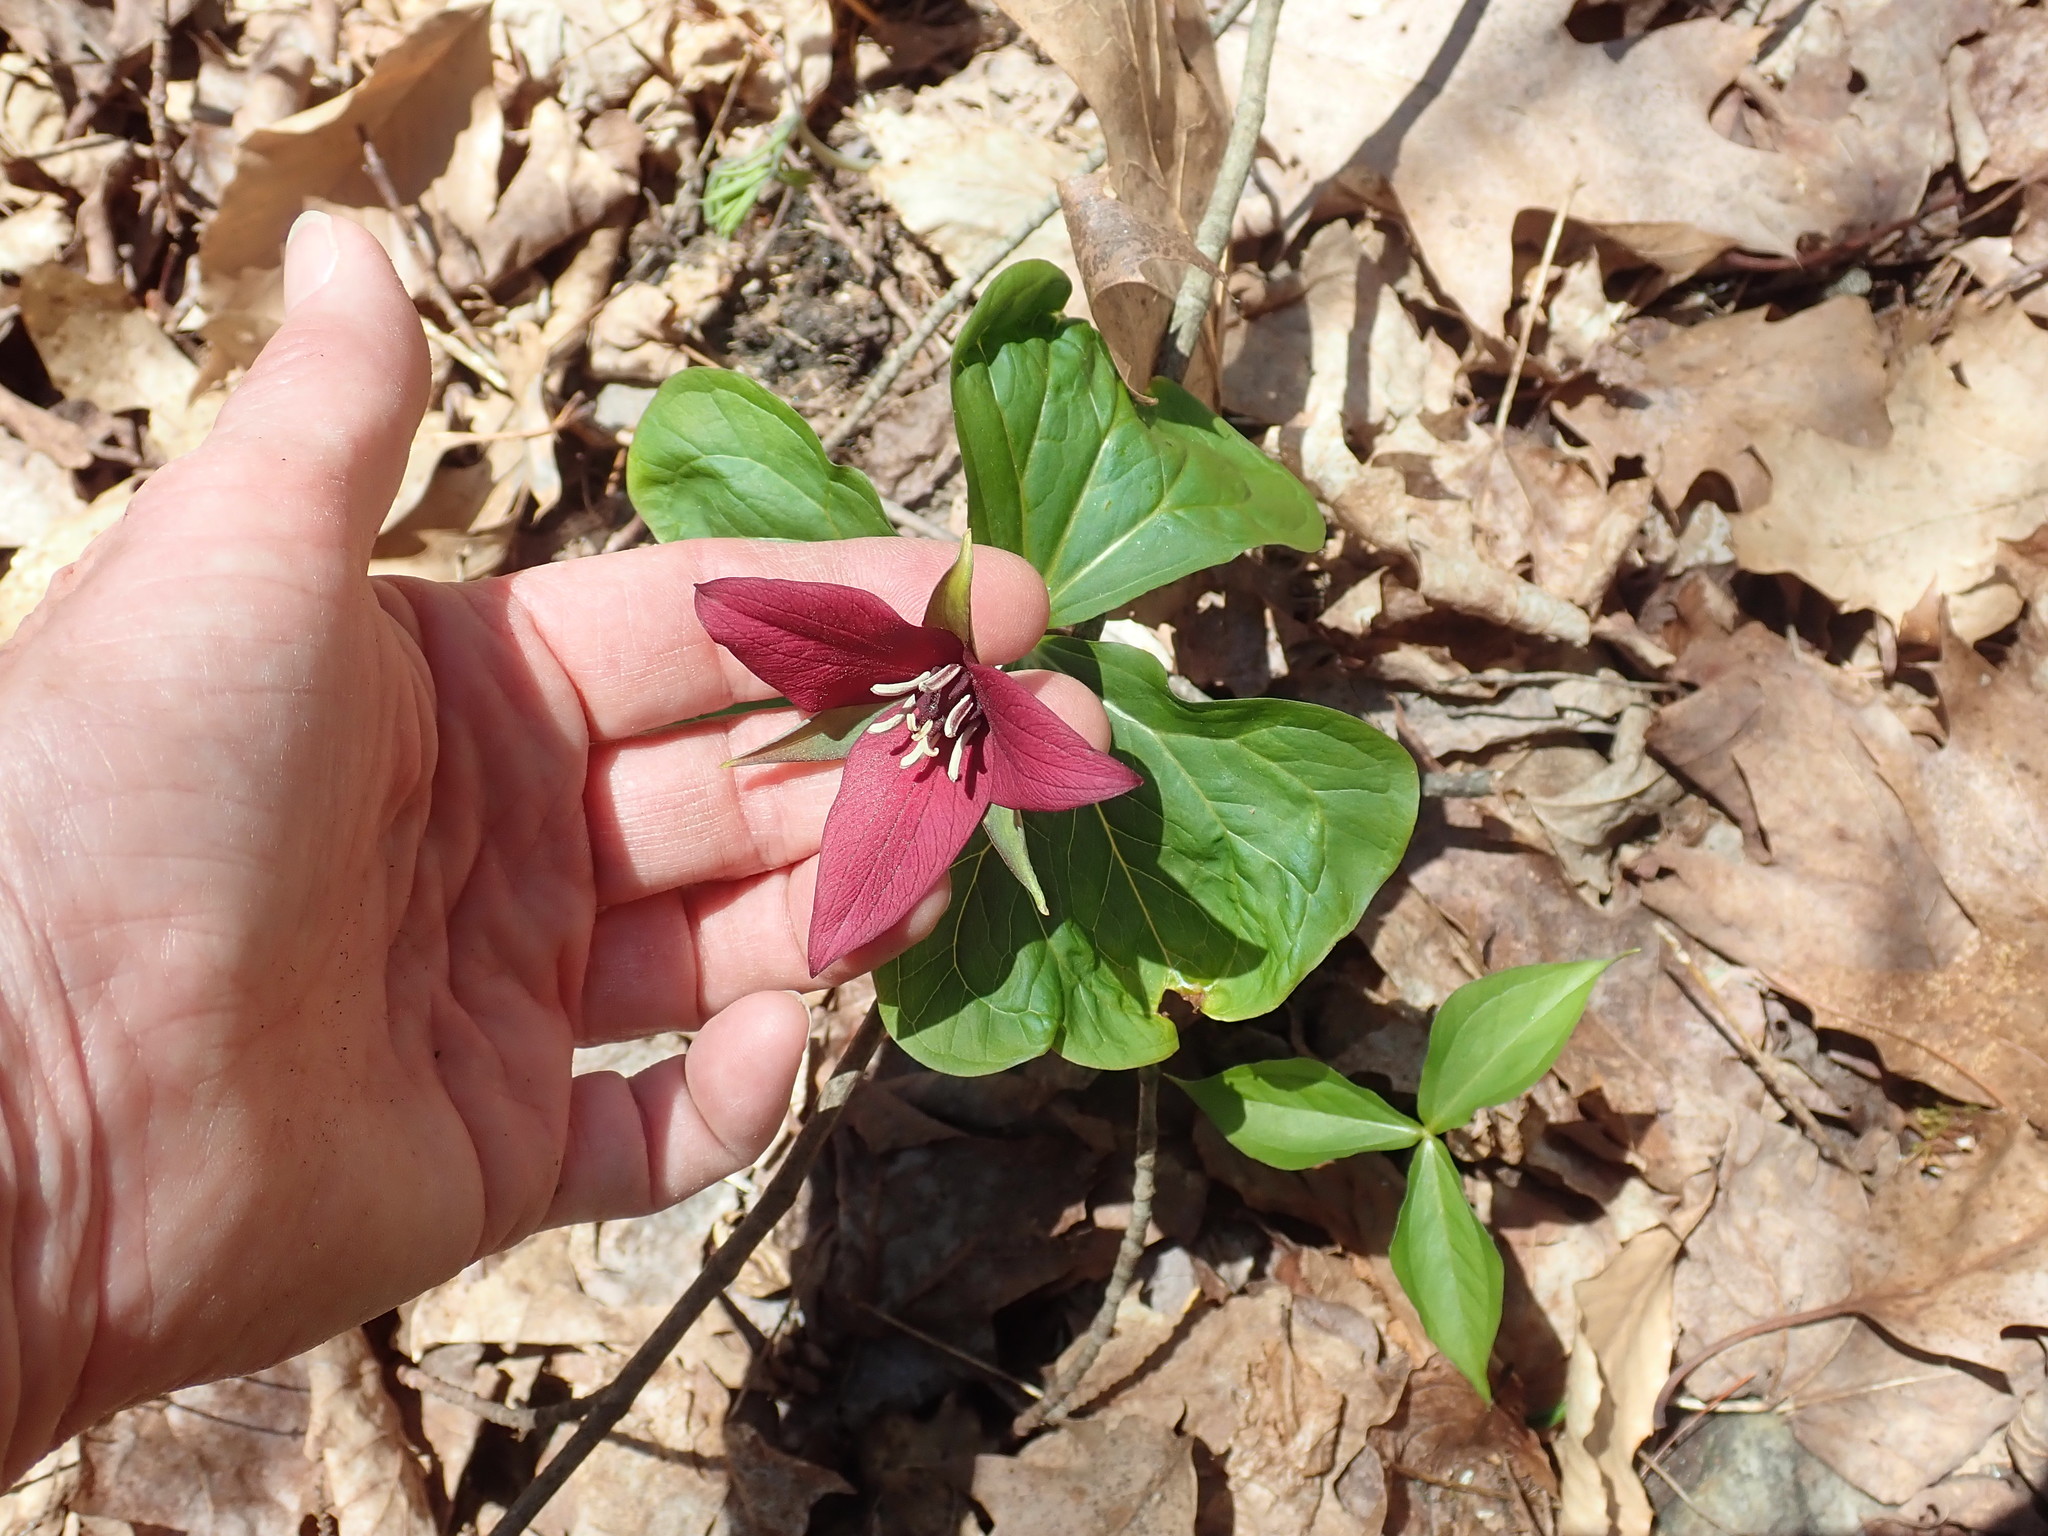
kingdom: Plantae
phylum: Tracheophyta
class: Liliopsida
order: Liliales
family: Melanthiaceae
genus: Trillium
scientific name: Trillium erectum
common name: Purple trillium
